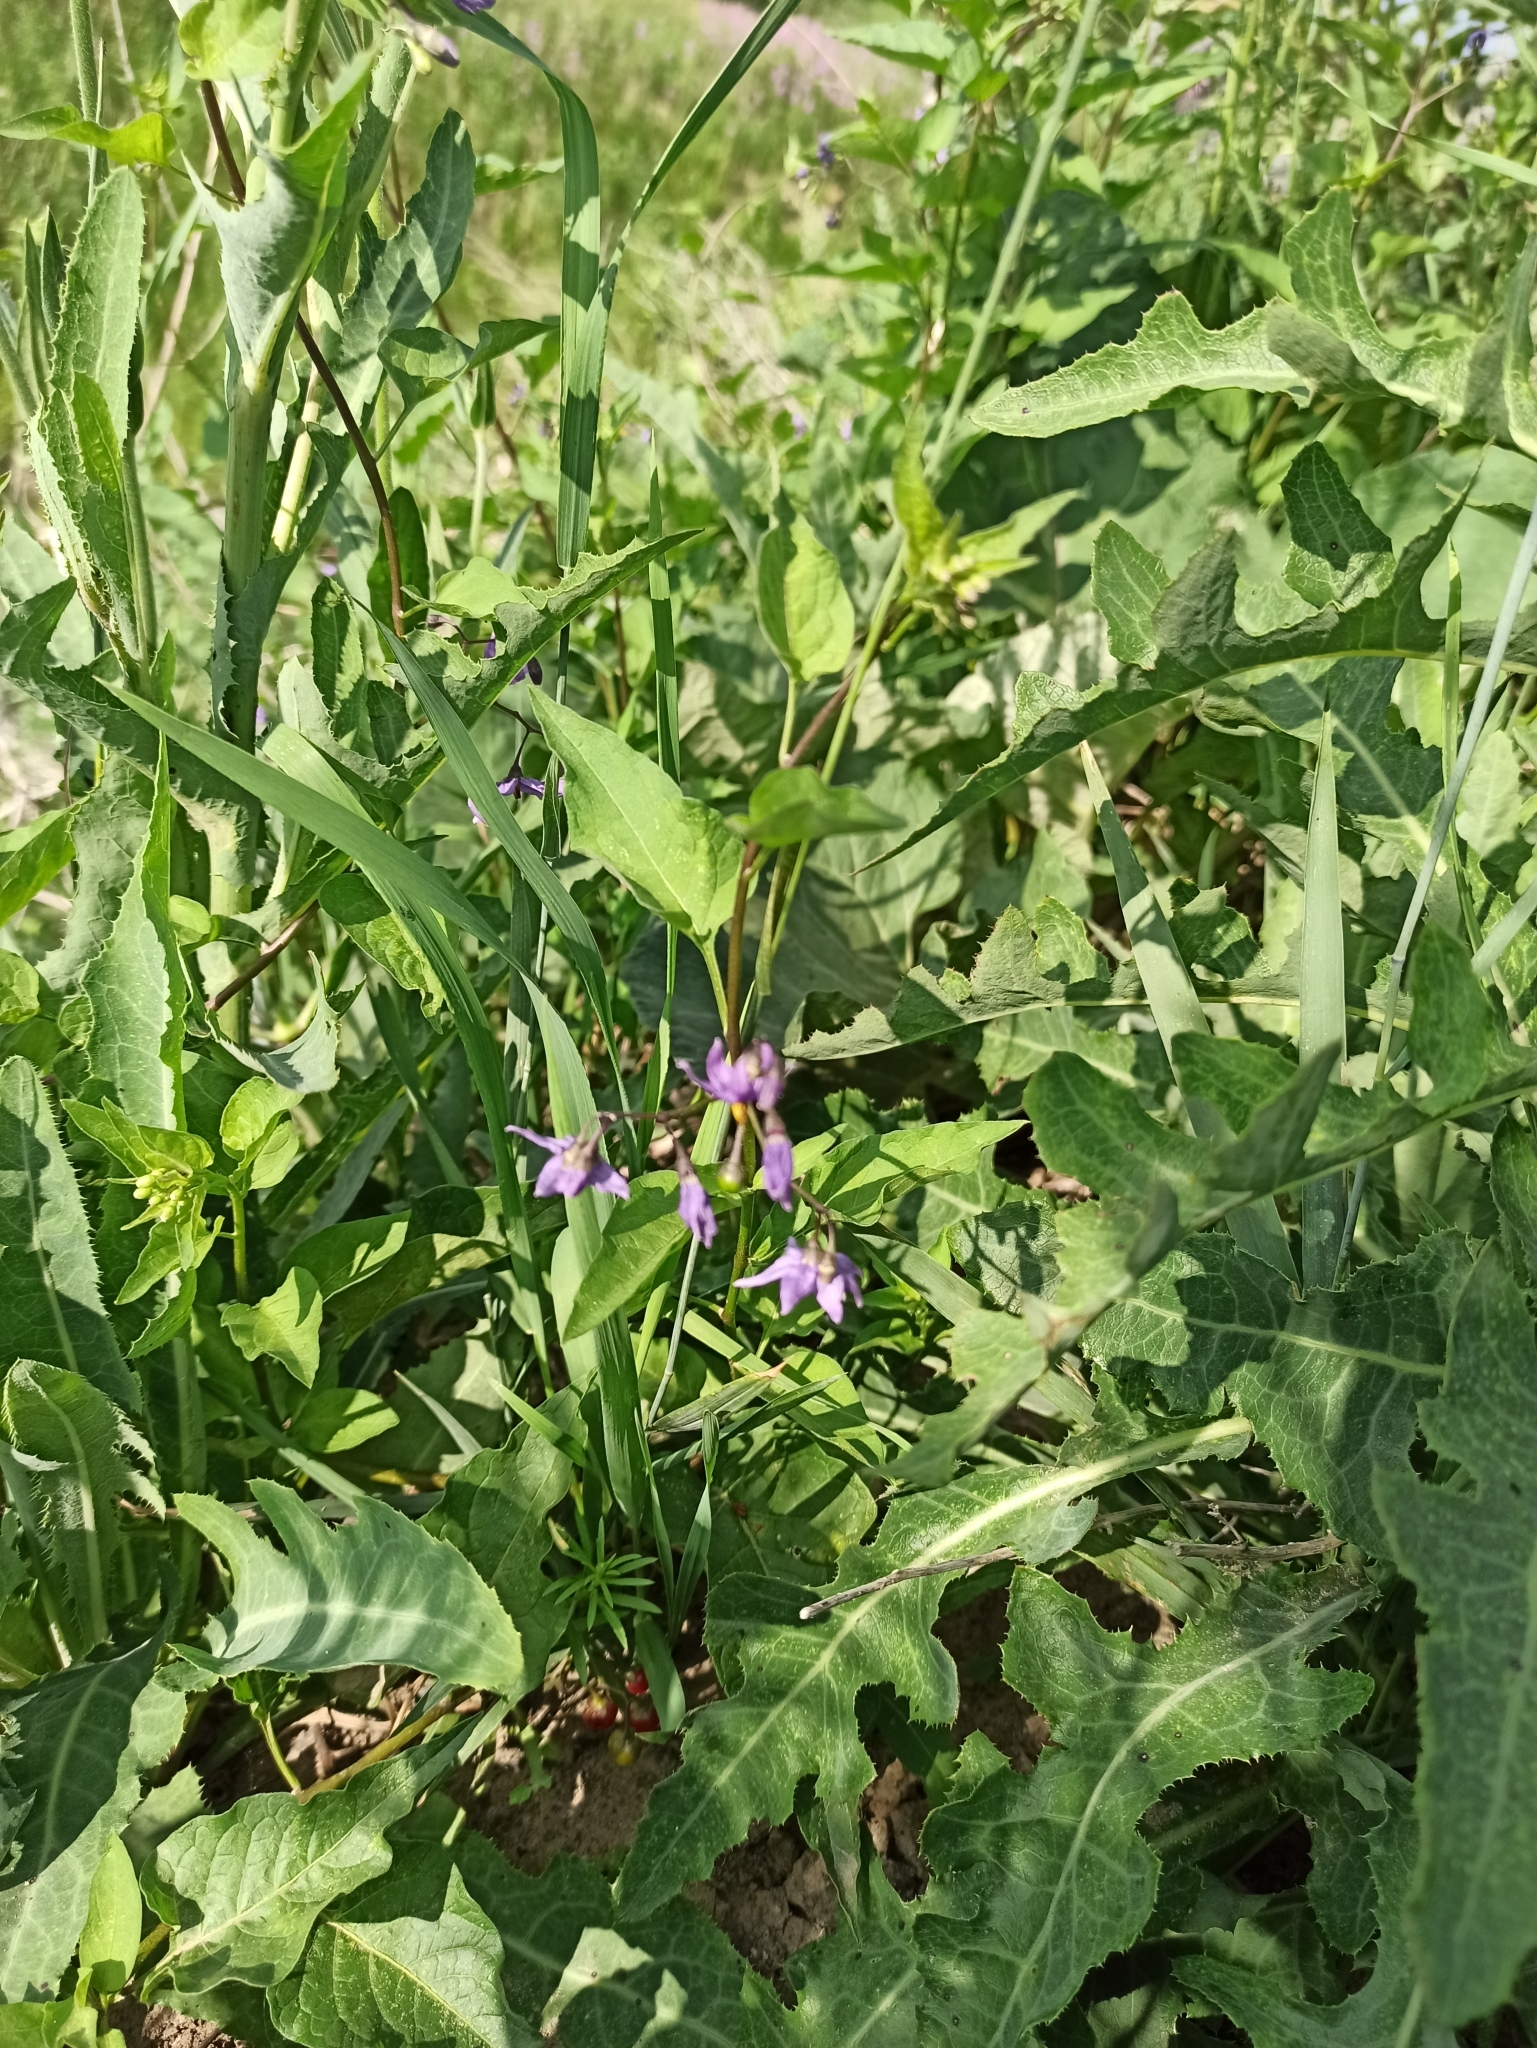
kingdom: Plantae
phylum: Tracheophyta
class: Magnoliopsida
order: Solanales
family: Solanaceae
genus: Solanum
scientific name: Solanum dulcamara
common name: Climbing nightshade
